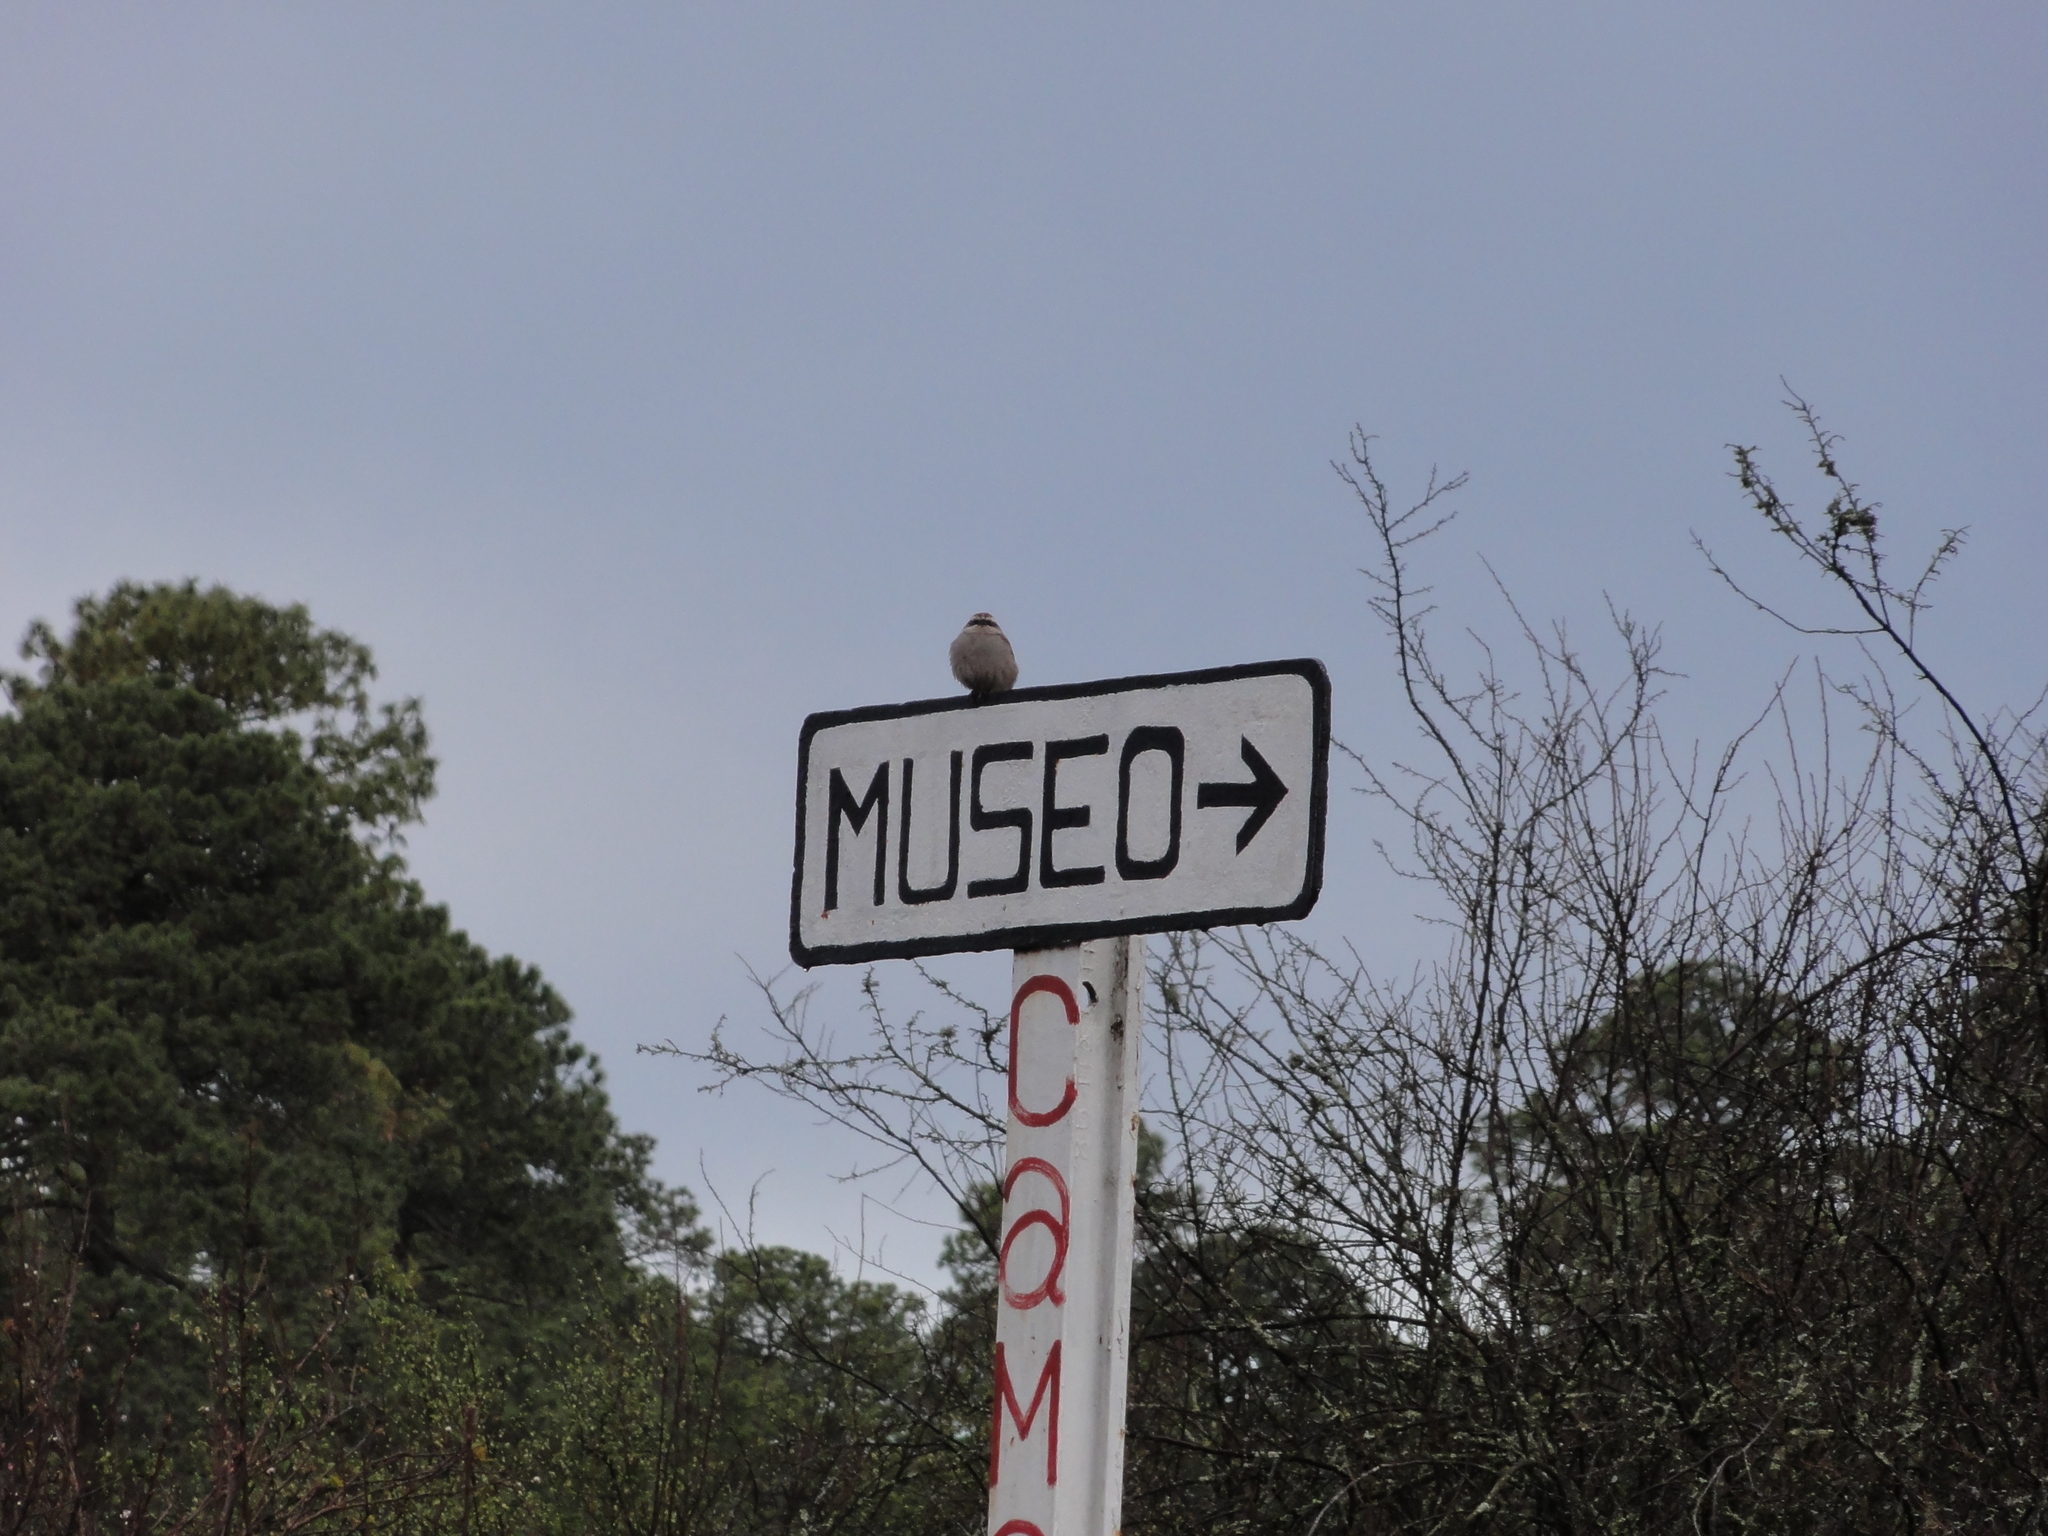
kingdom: Animalia
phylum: Chordata
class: Aves
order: Passeriformes
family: Passerellidae
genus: Oriturus
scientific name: Oriturus superciliosus
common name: Striped sparrow
